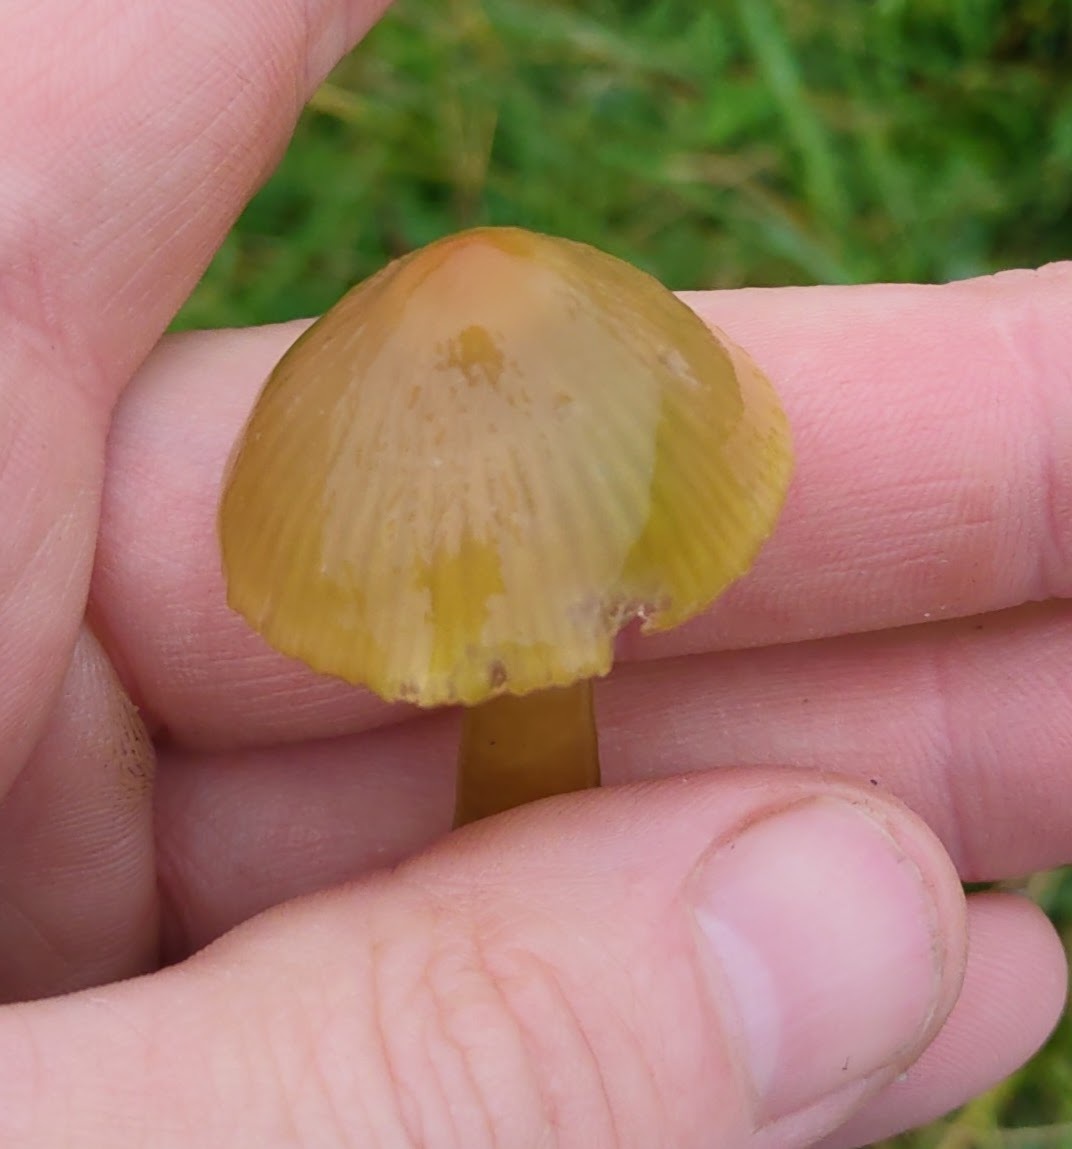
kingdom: Fungi
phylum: Basidiomycota
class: Agaricomycetes
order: Agaricales
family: Hygrophoraceae
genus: Gliophorus
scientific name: Gliophorus psittacinus
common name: Parrot wax-cap
